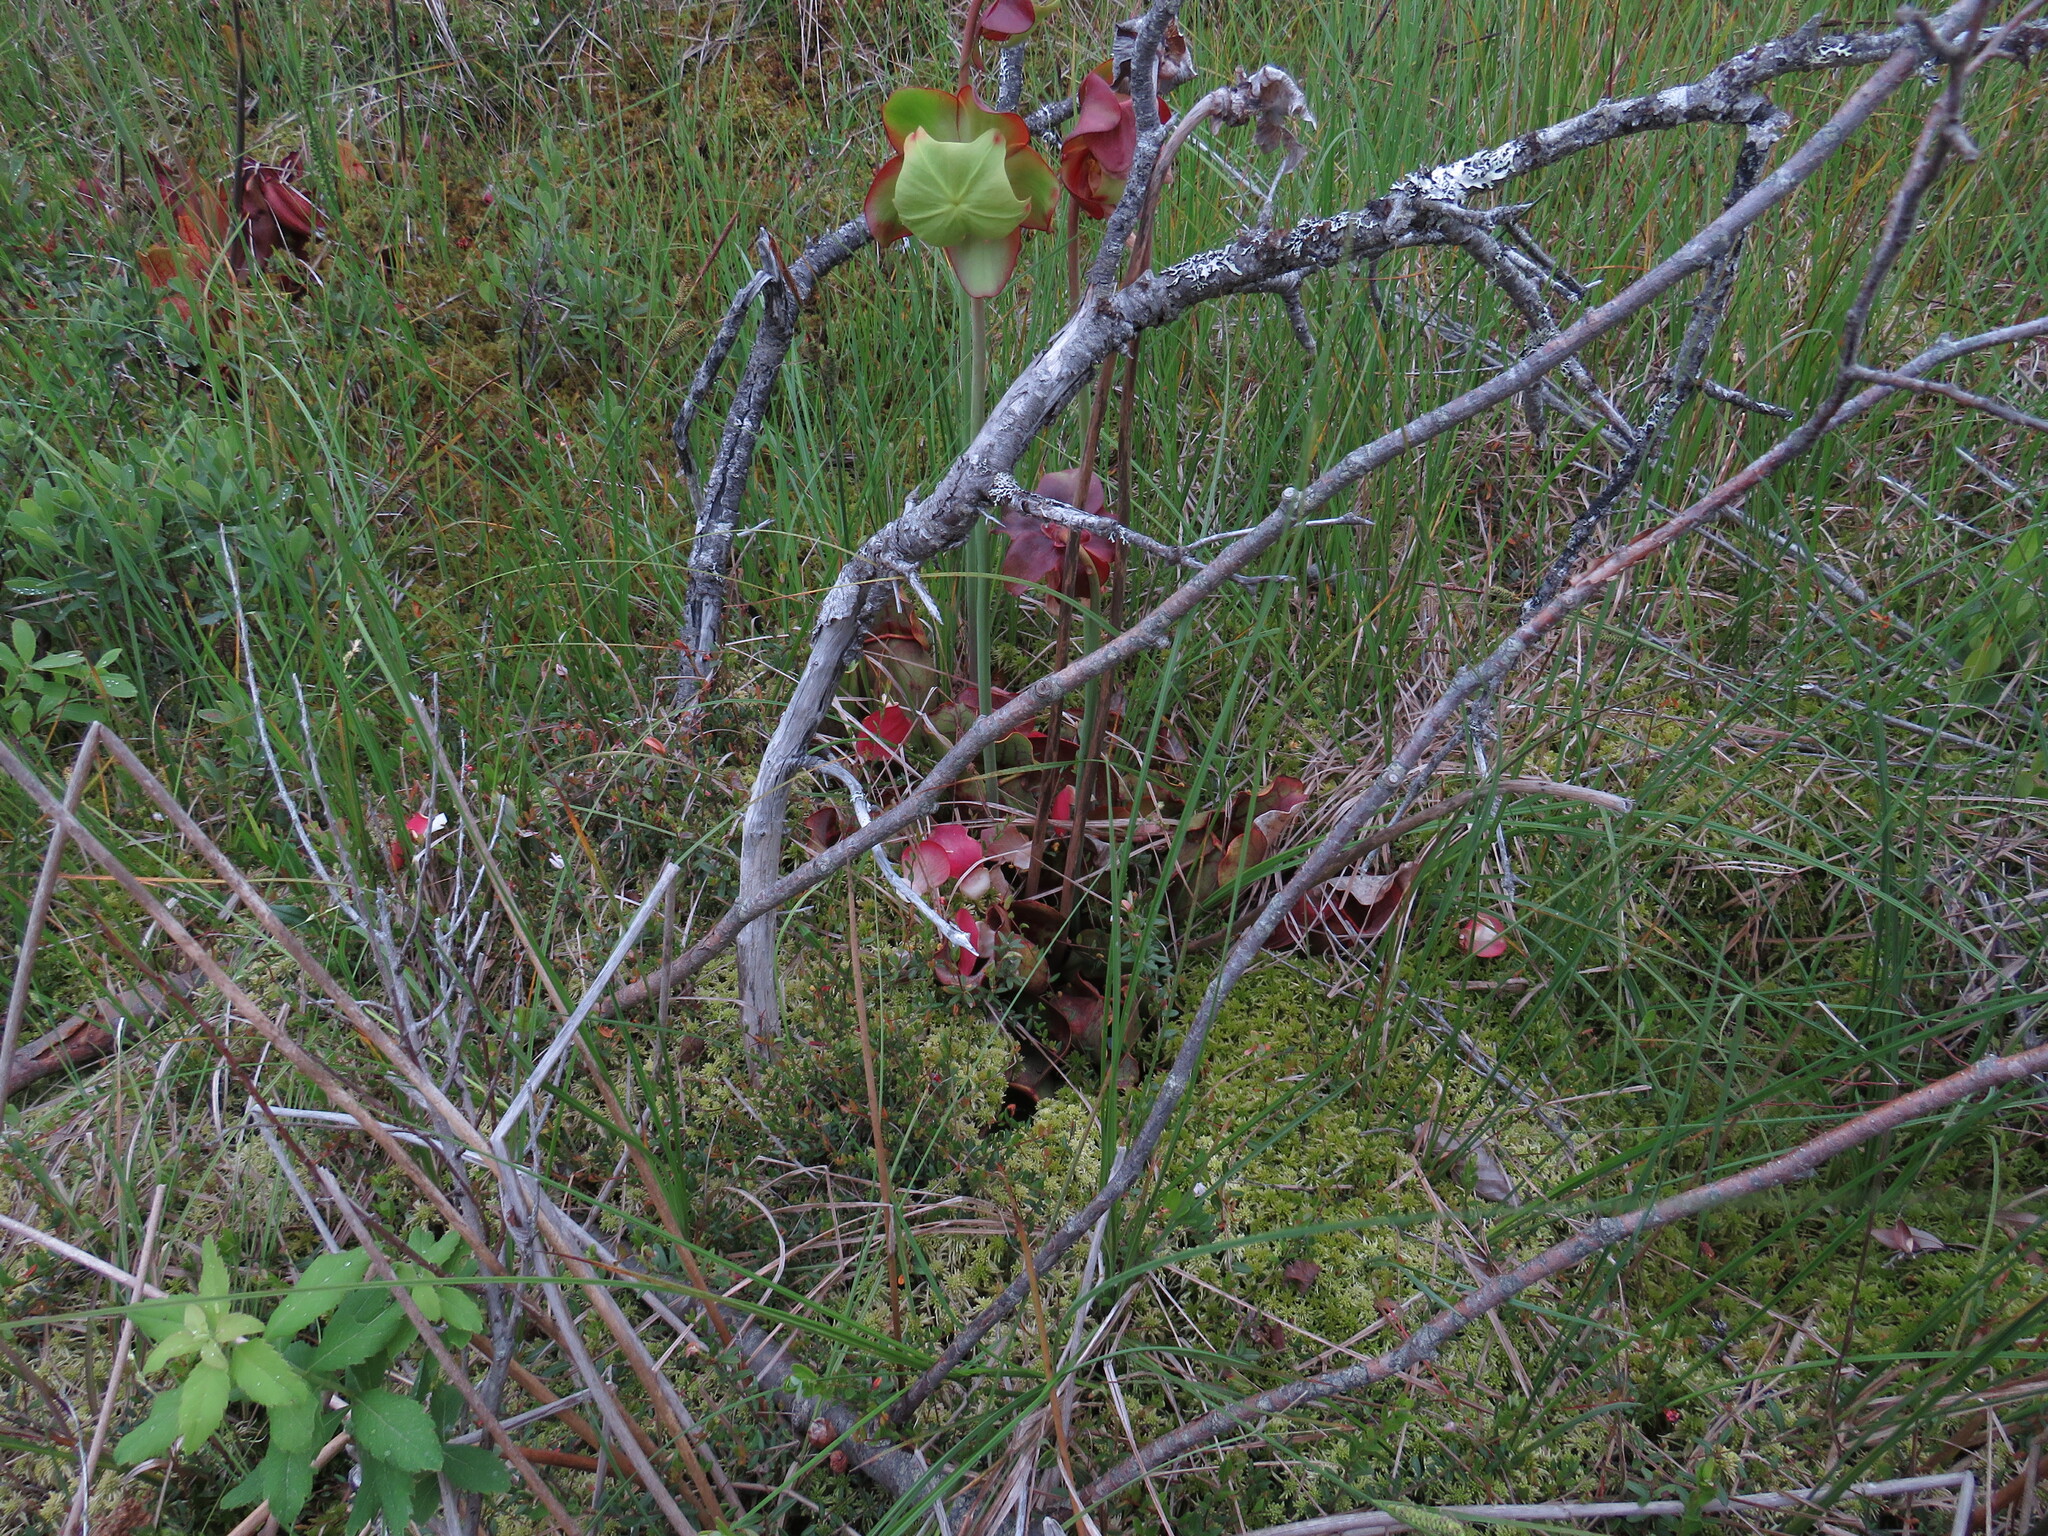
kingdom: Plantae
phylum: Tracheophyta
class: Magnoliopsida
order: Ericales
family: Sarraceniaceae
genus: Sarracenia
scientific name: Sarracenia purpurea
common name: Pitcherplant
